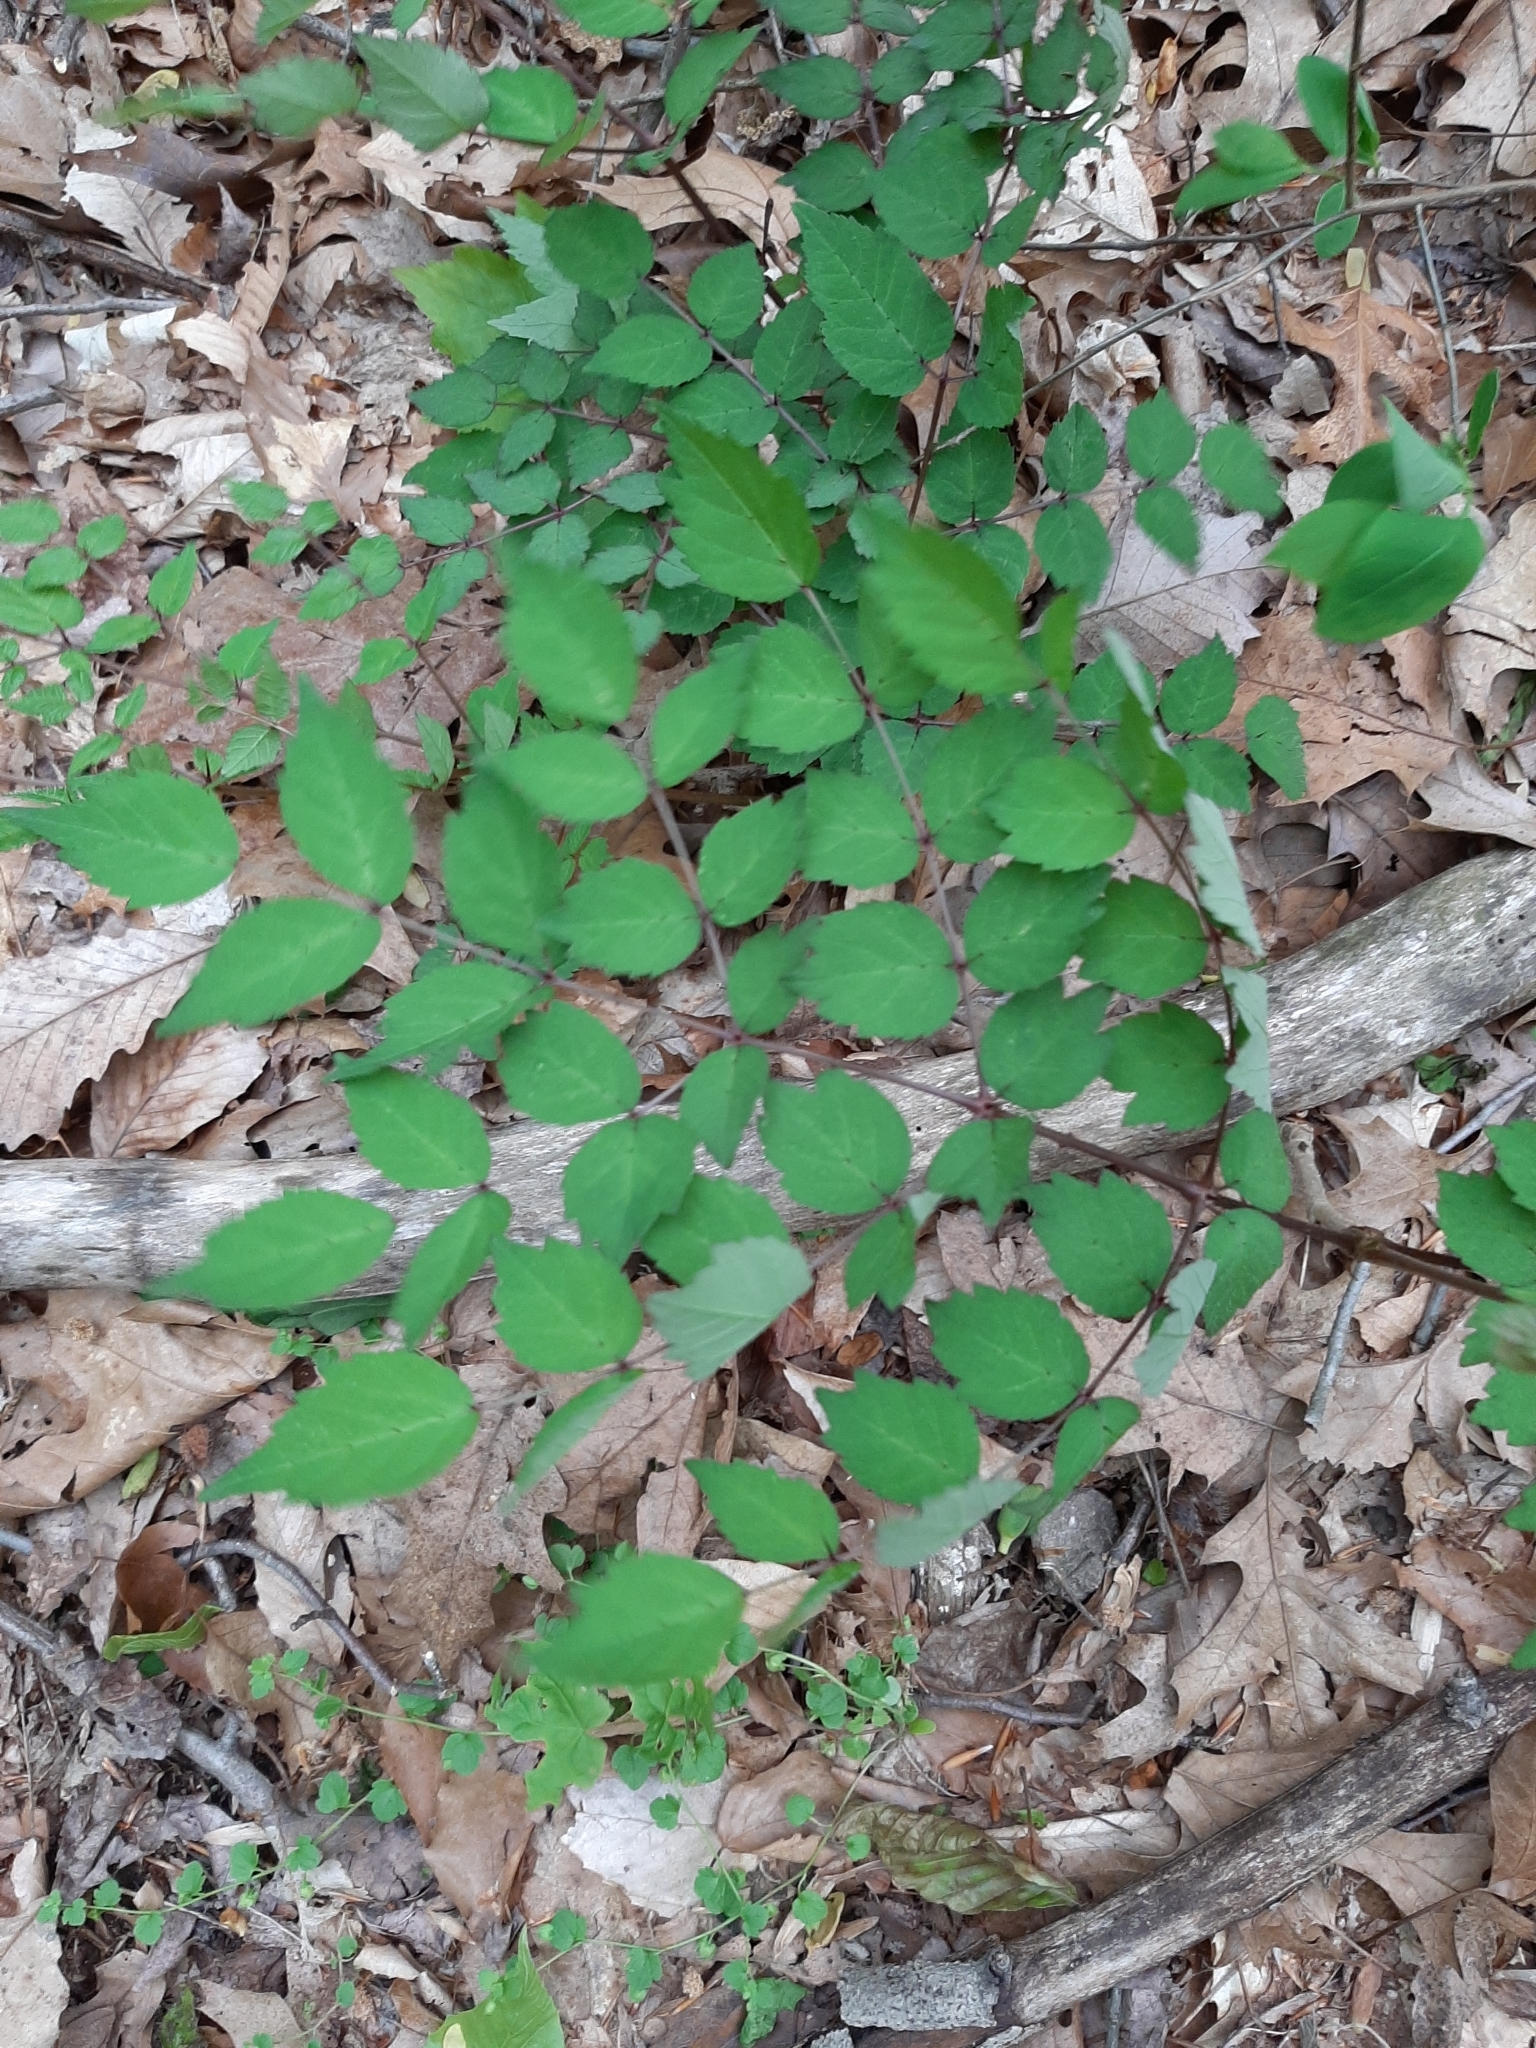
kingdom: Plantae
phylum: Tracheophyta
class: Magnoliopsida
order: Apiales
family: Araliaceae
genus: Aralia
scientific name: Aralia elata
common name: Japanese angelica-tree
